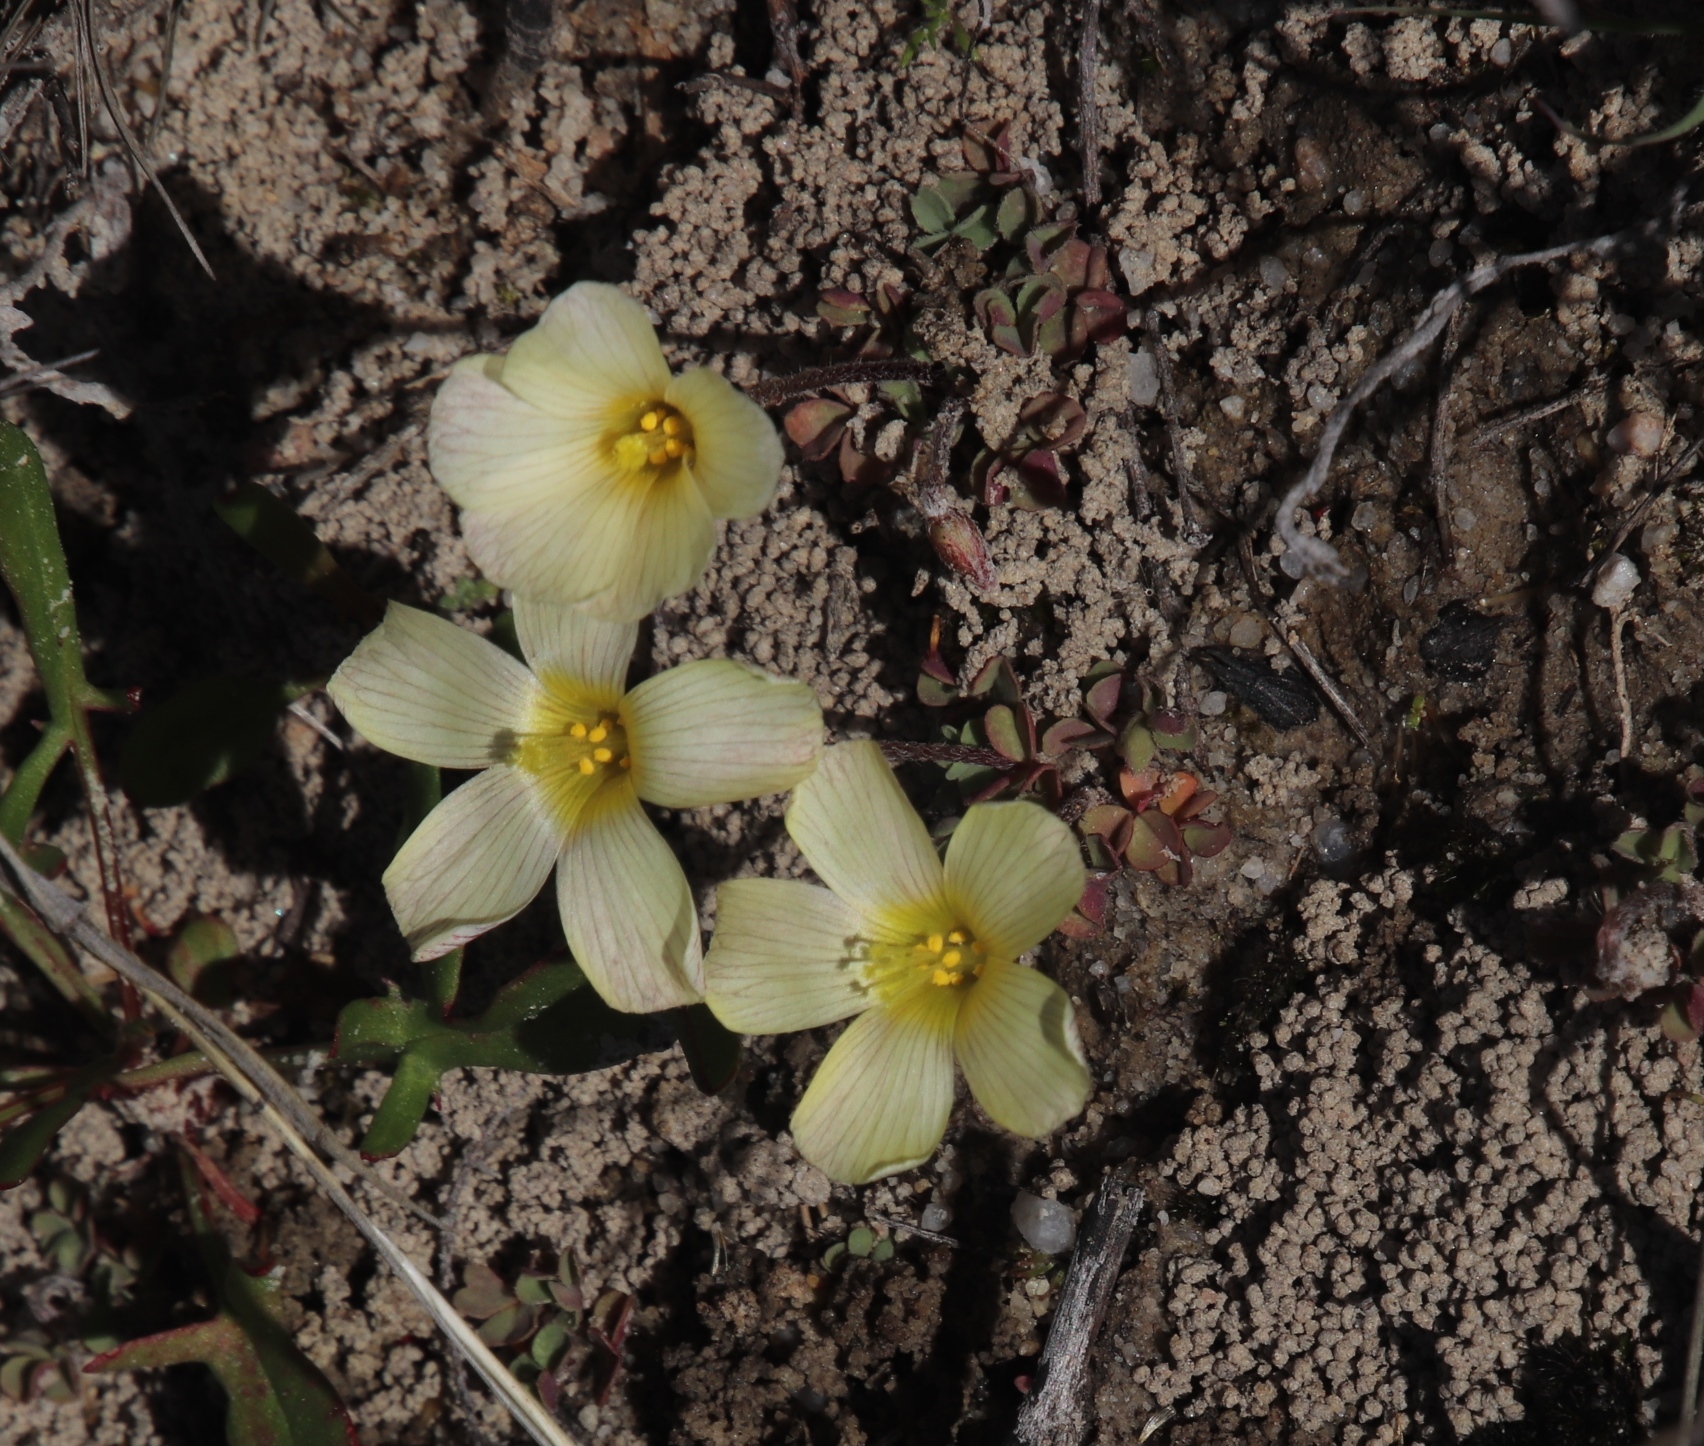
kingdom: Plantae
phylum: Tracheophyta
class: Magnoliopsida
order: Oxalidales
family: Oxalidaceae
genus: Oxalis
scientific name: Oxalis obtusa
